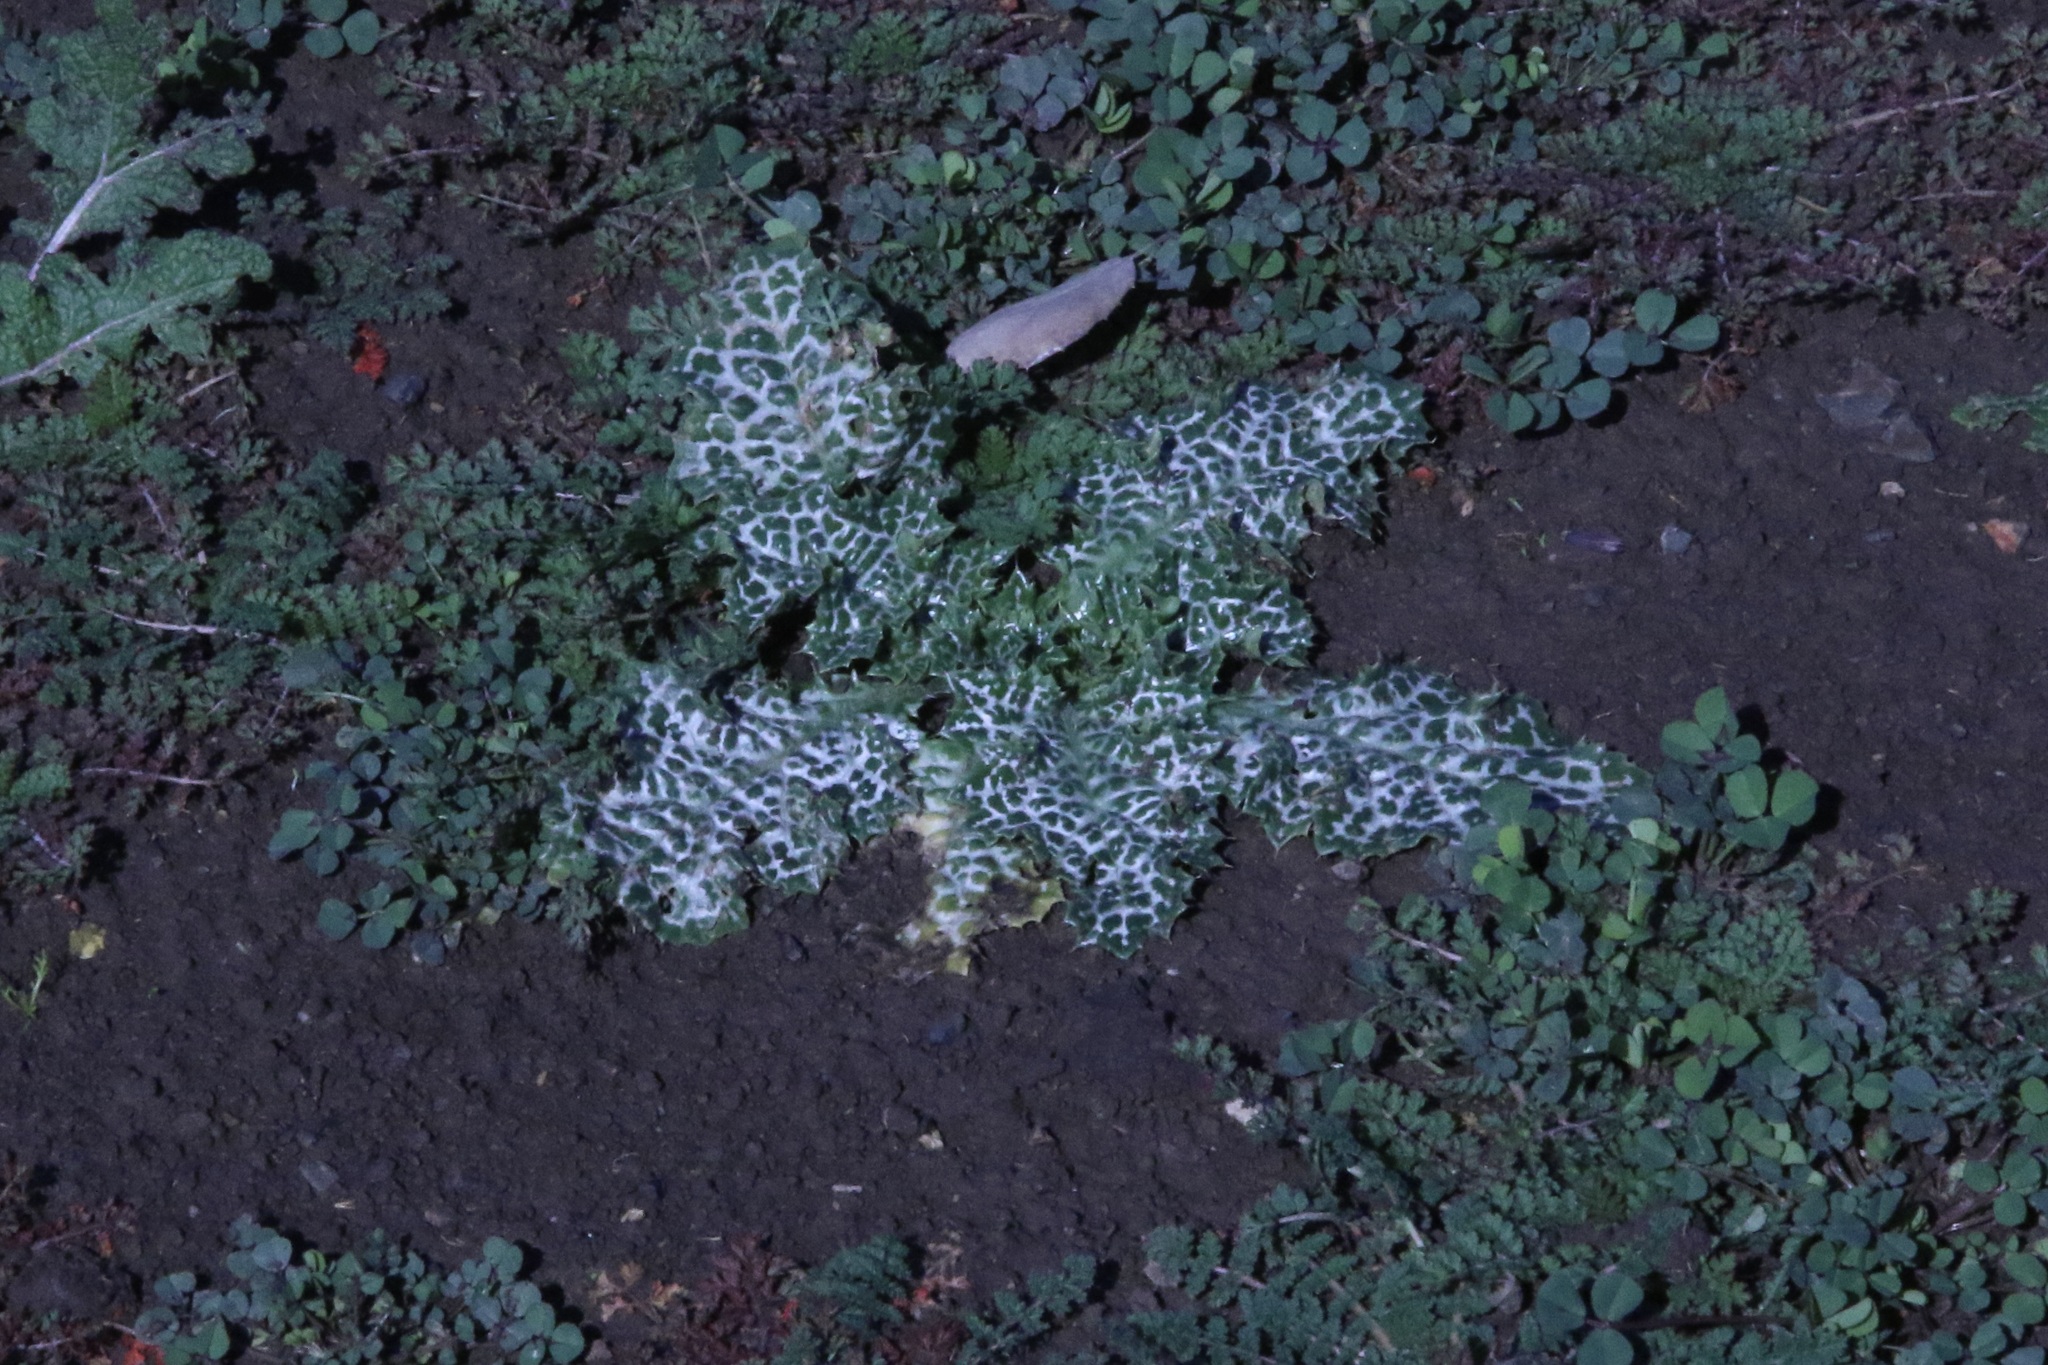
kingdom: Plantae
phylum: Tracheophyta
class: Magnoliopsida
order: Asterales
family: Asteraceae
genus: Silybum
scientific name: Silybum marianum
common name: Milk thistle
